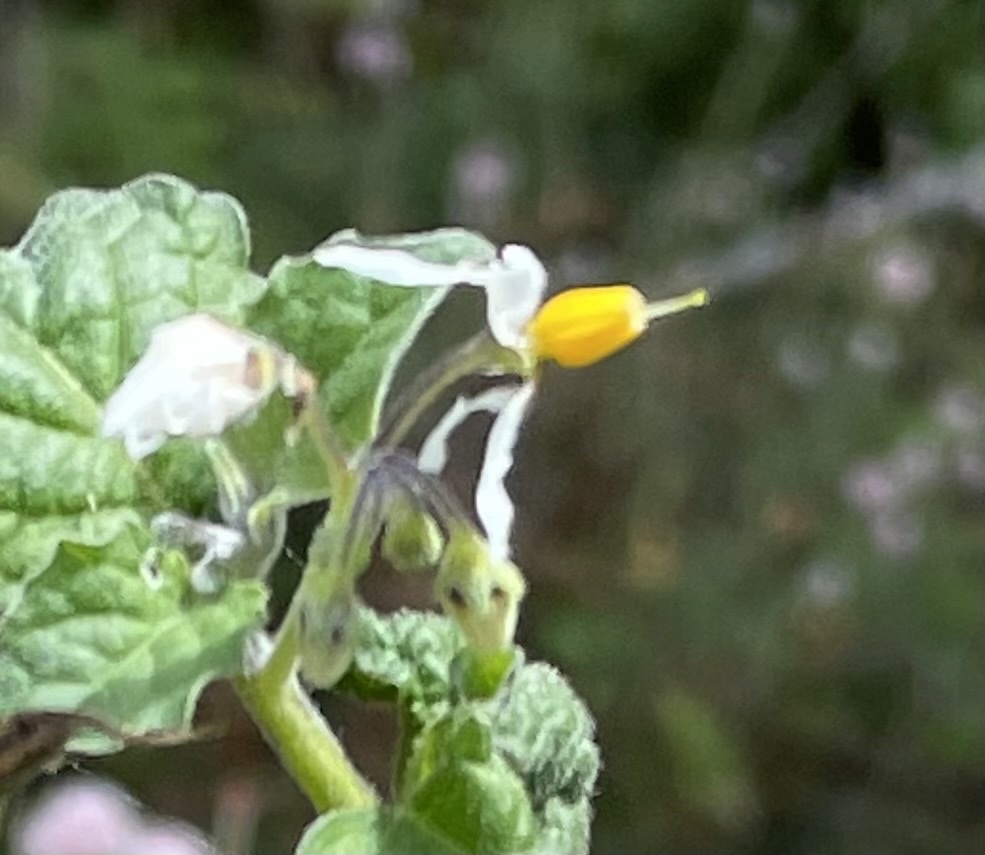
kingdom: Plantae
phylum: Tracheophyta
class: Magnoliopsida
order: Solanales
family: Solanaceae
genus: Solanum
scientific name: Solanum douglasii
